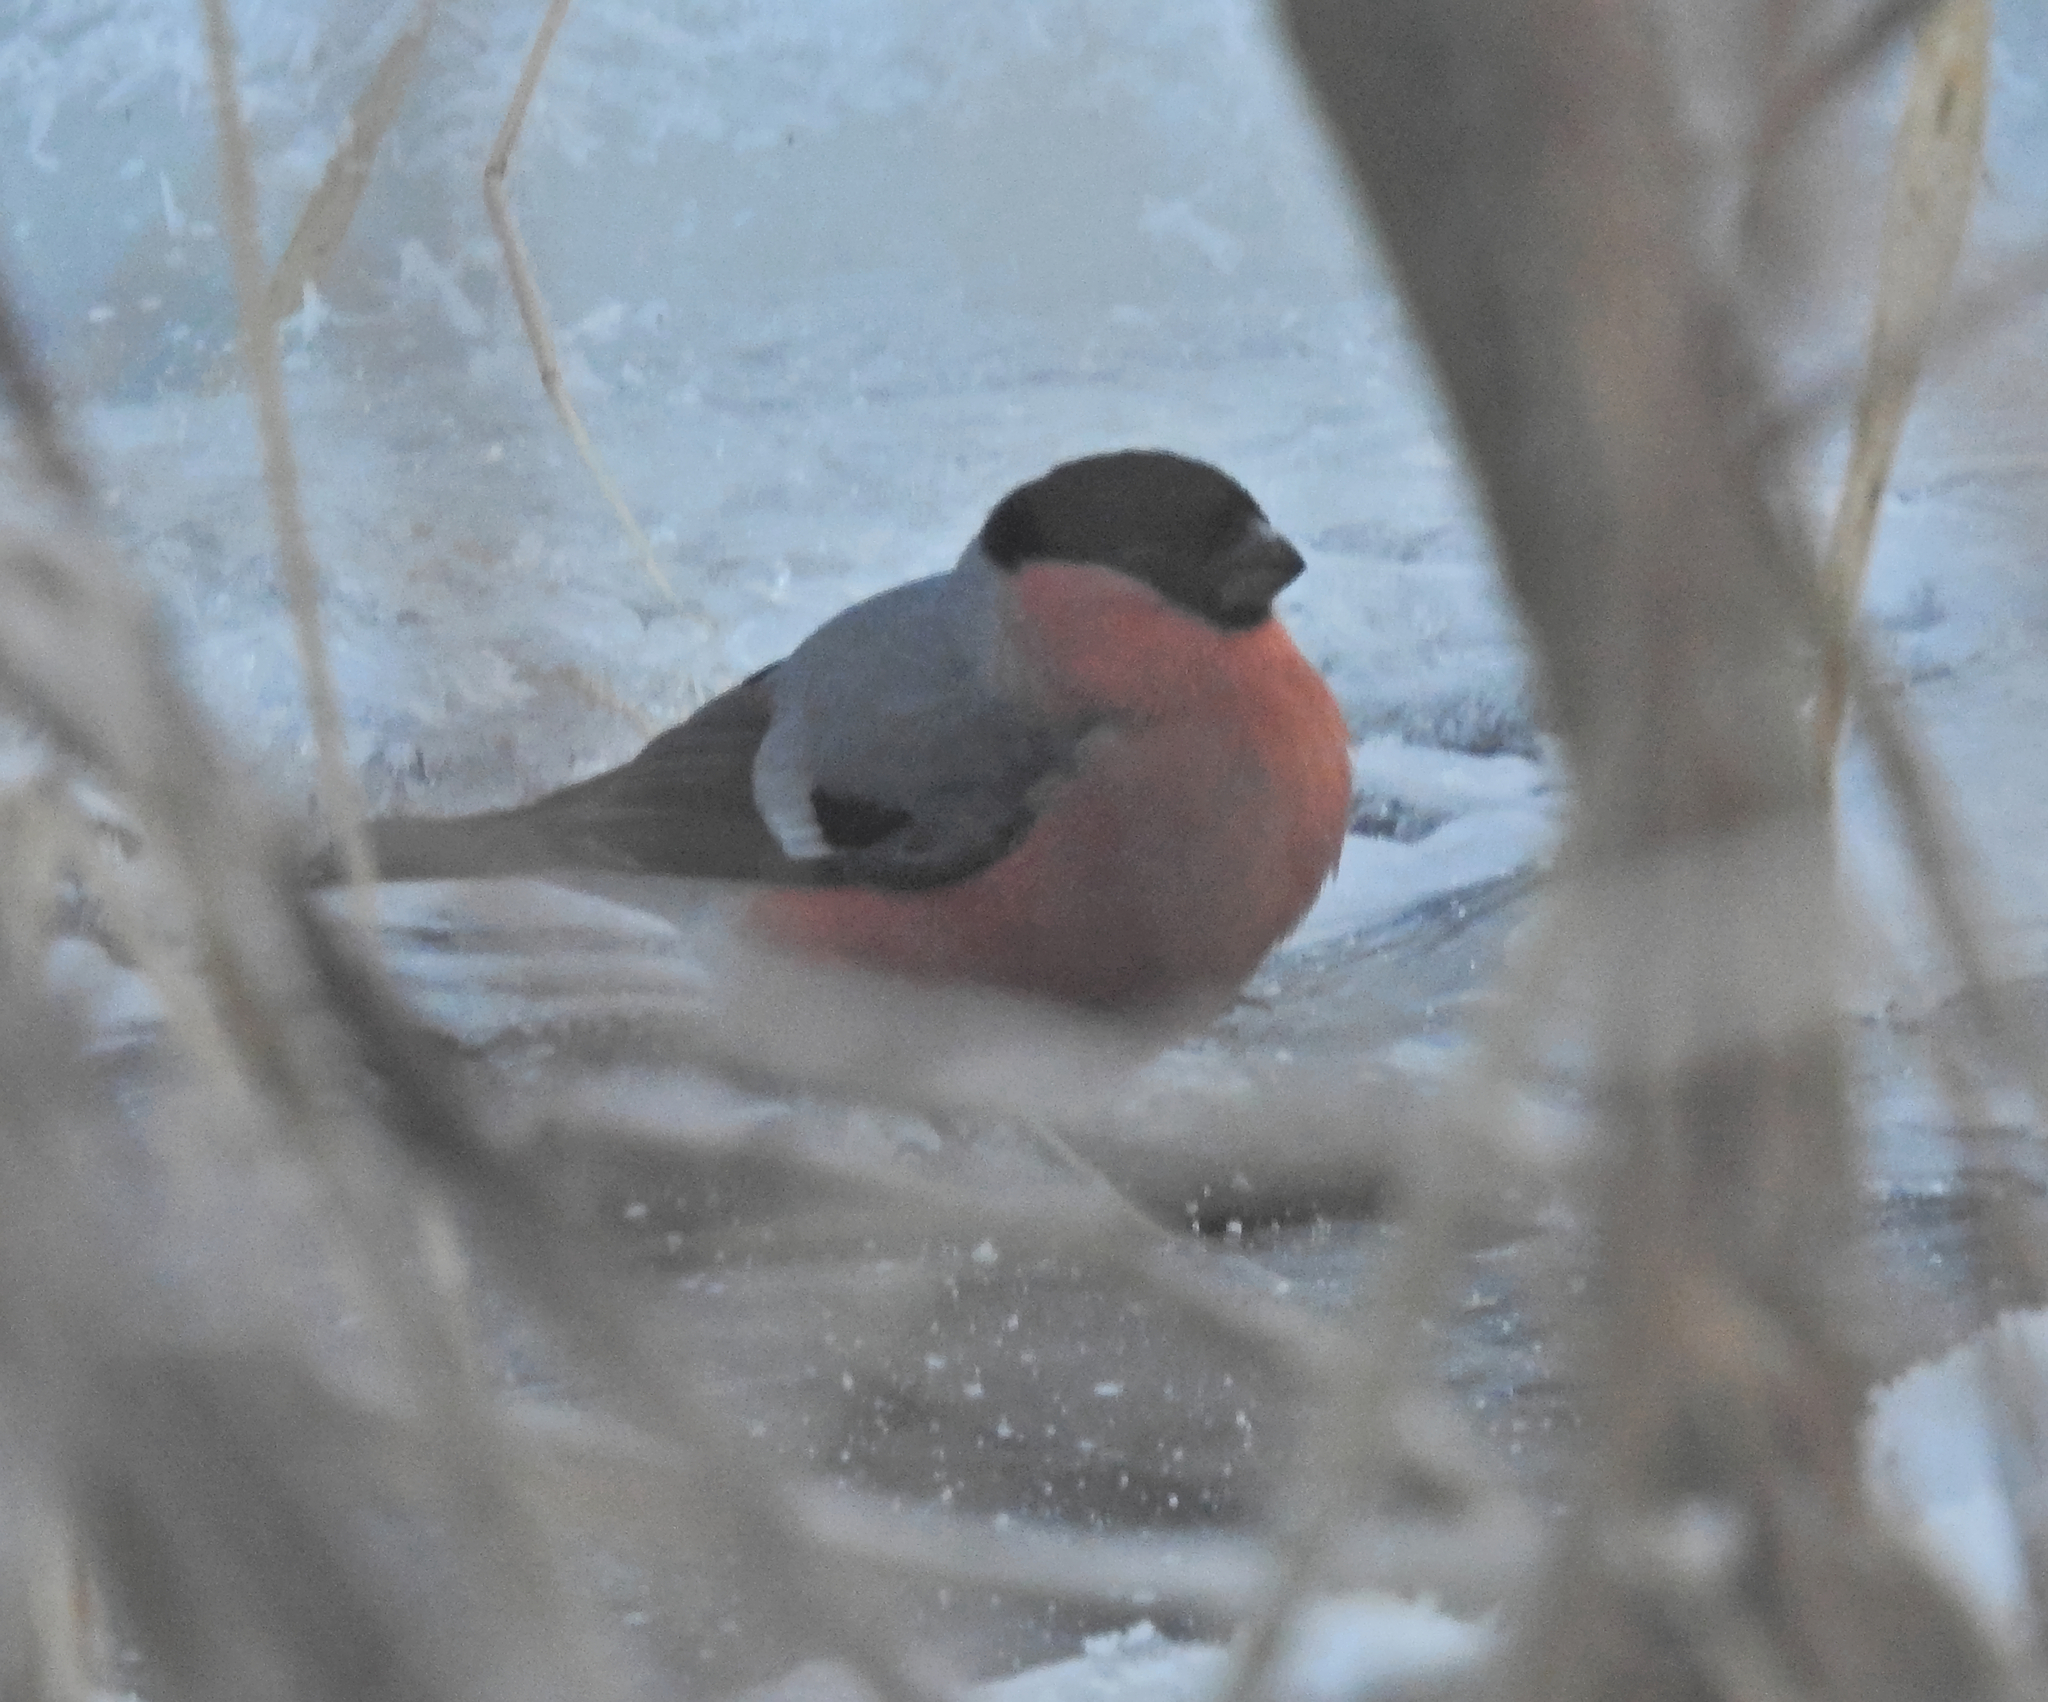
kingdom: Animalia
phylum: Chordata
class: Aves
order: Passeriformes
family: Fringillidae
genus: Pyrrhula
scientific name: Pyrrhula pyrrhula
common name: Eurasian bullfinch
